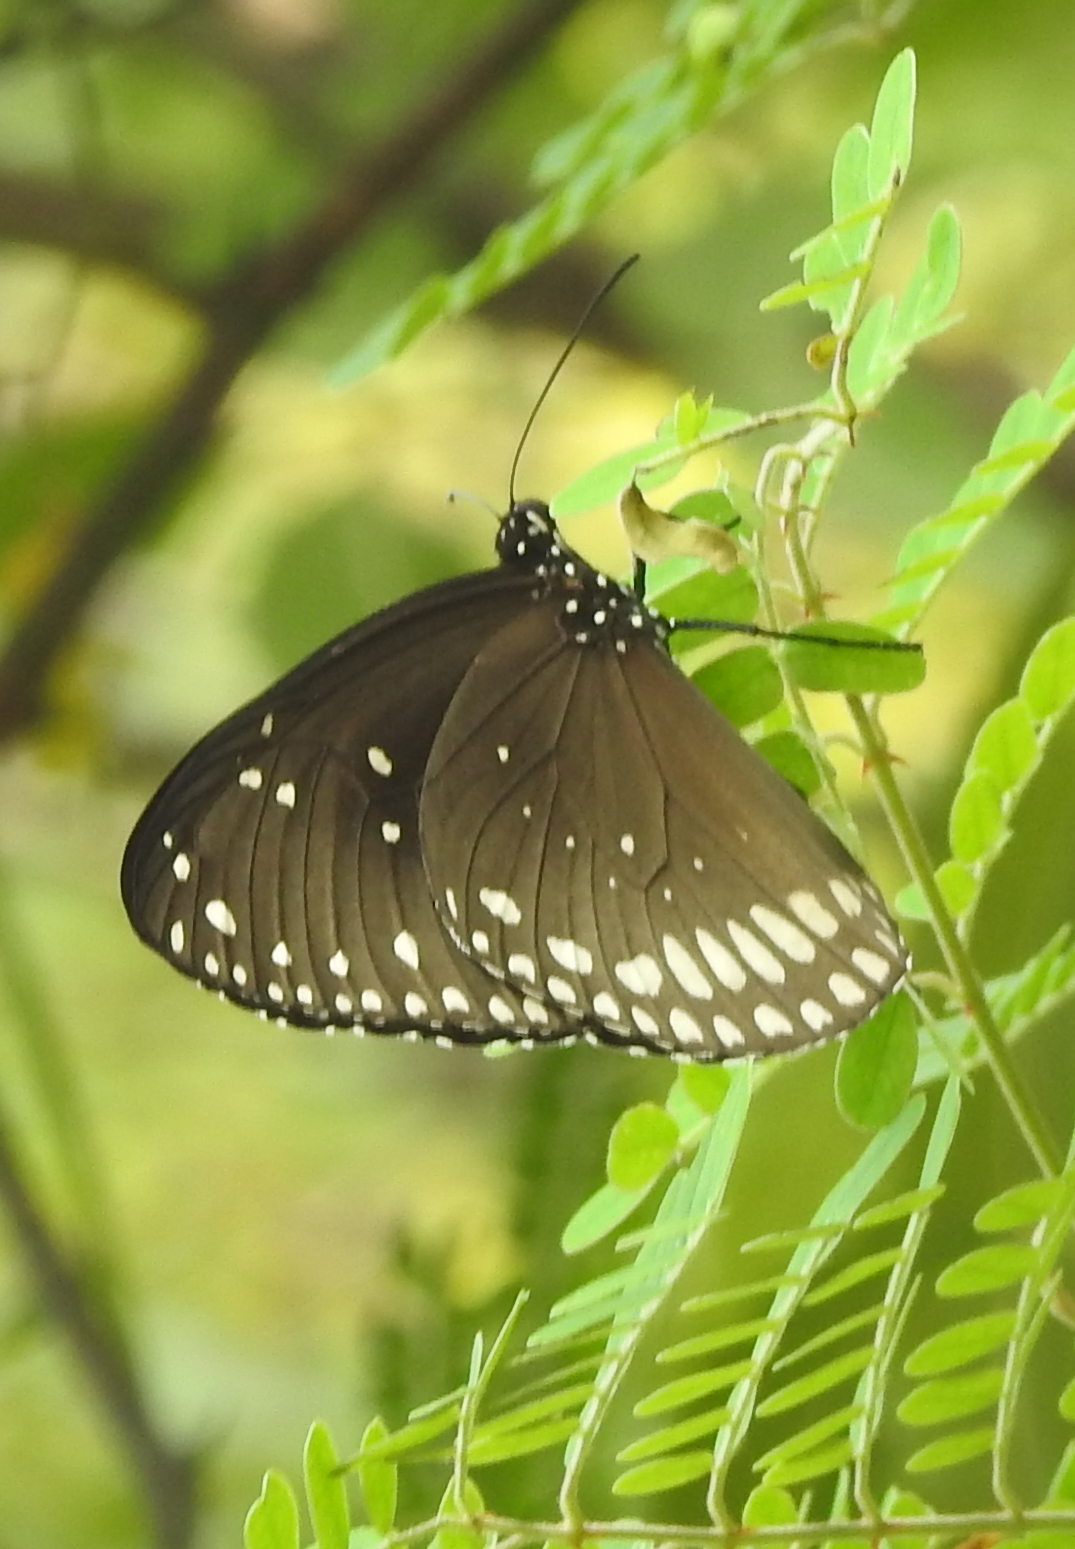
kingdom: Animalia
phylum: Arthropoda
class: Insecta
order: Lepidoptera
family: Nymphalidae
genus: Euploea
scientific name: Euploea sylvester
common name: Double-branded crow butterfly
